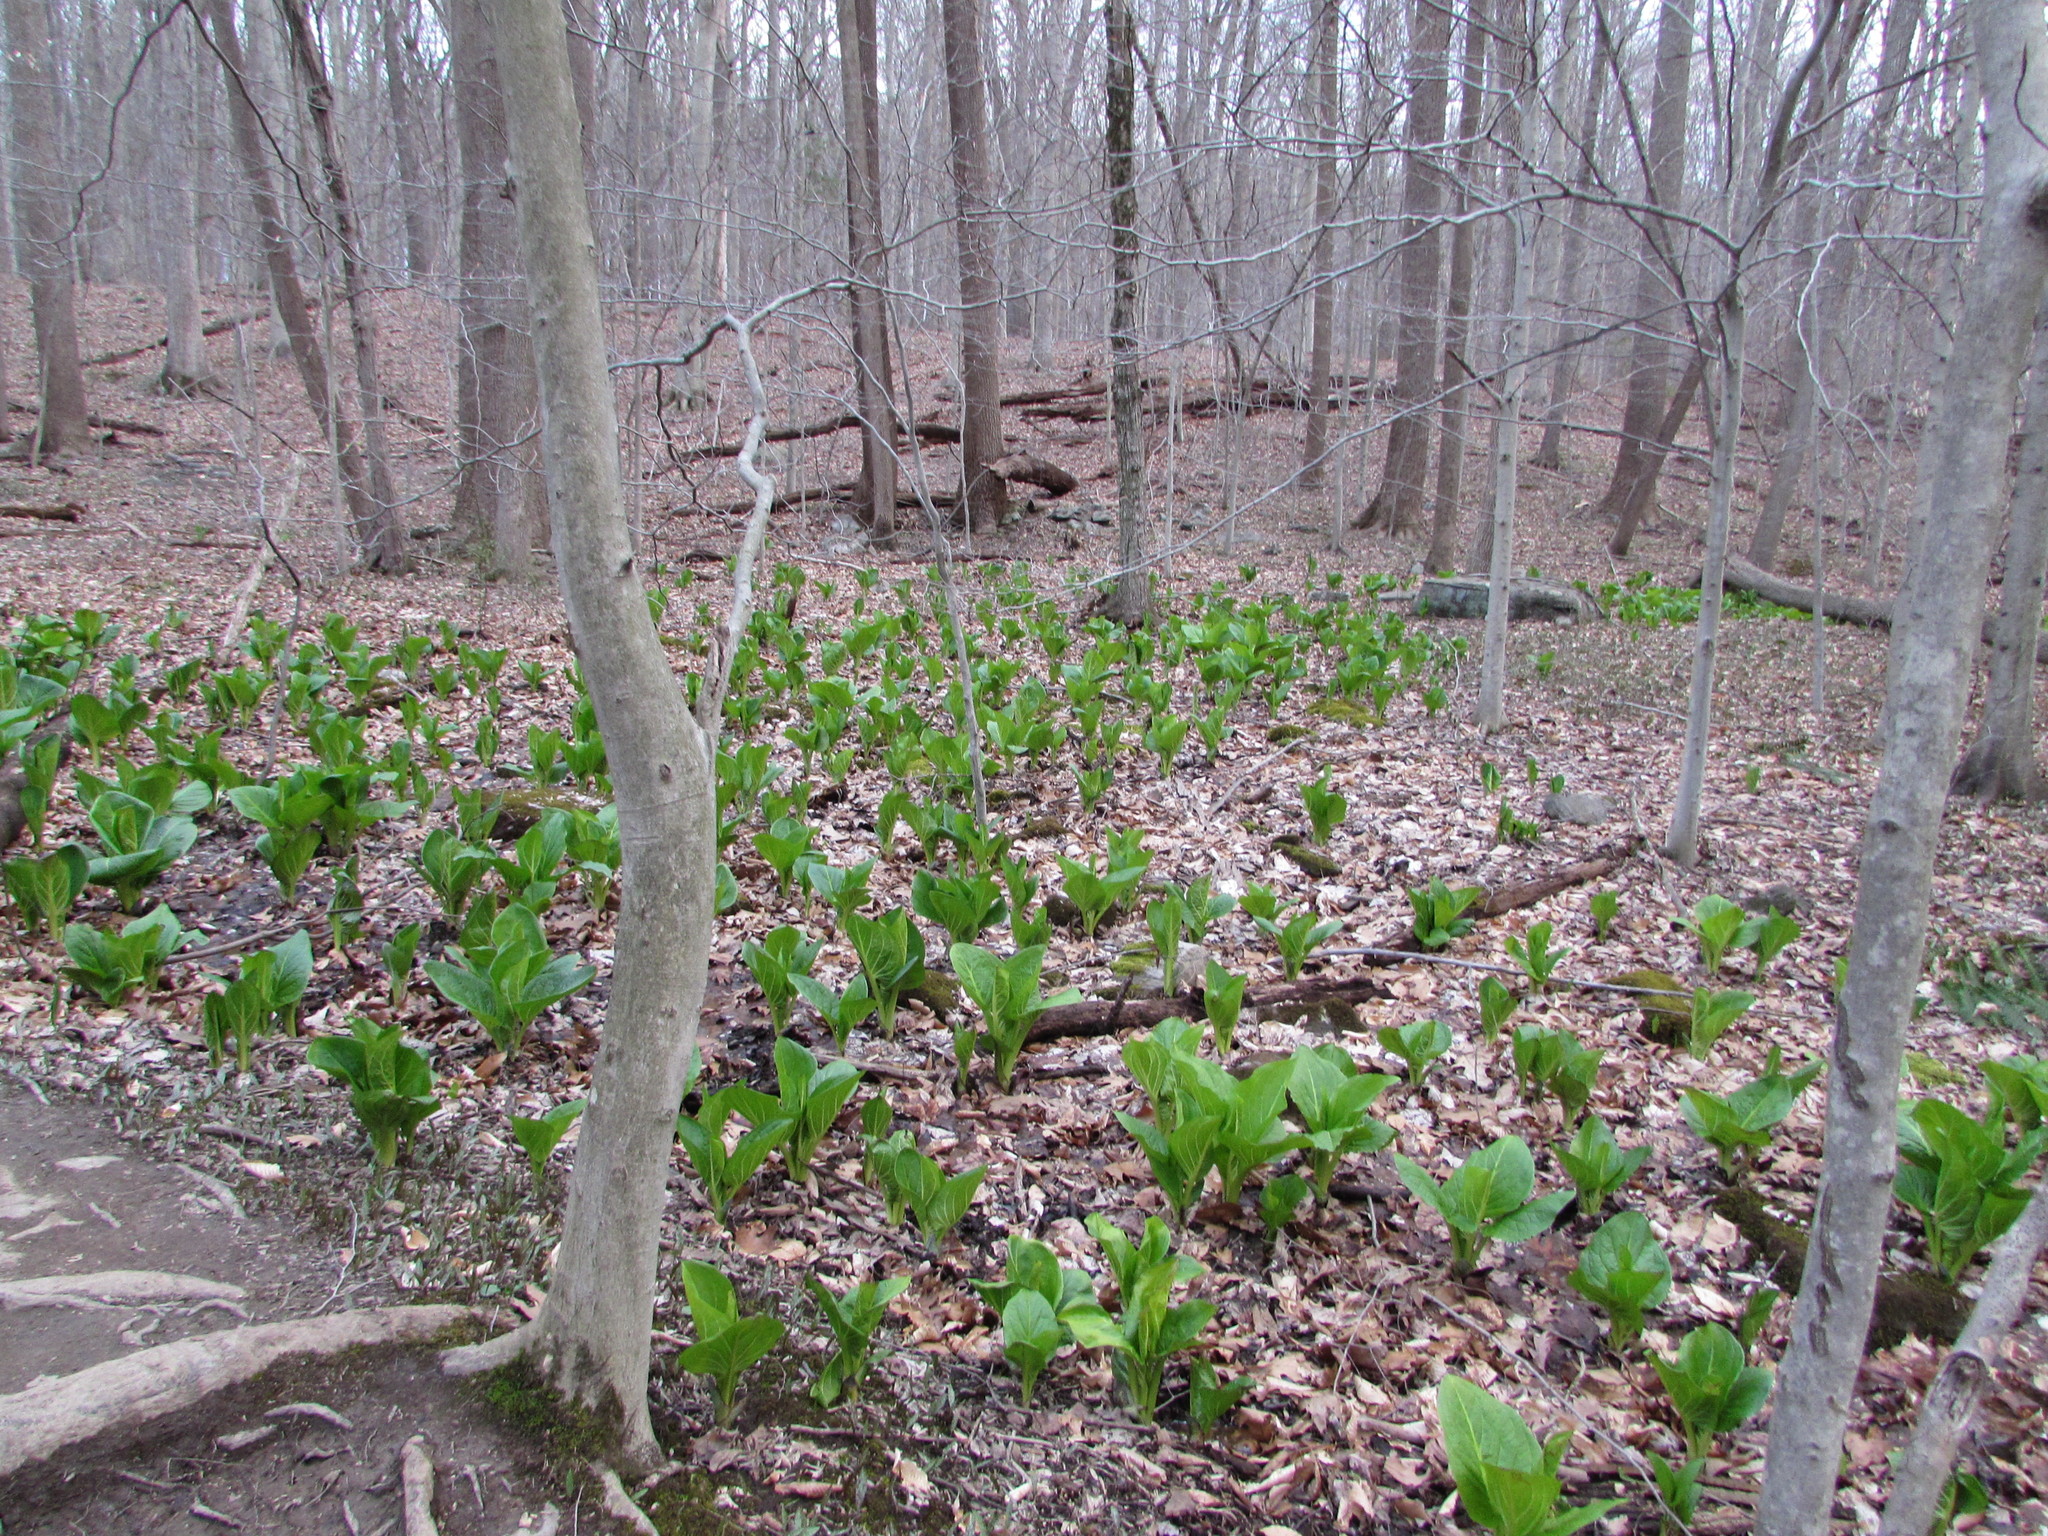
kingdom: Plantae
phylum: Tracheophyta
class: Liliopsida
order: Alismatales
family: Araceae
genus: Symplocarpus
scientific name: Symplocarpus foetidus
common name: Eastern skunk cabbage
